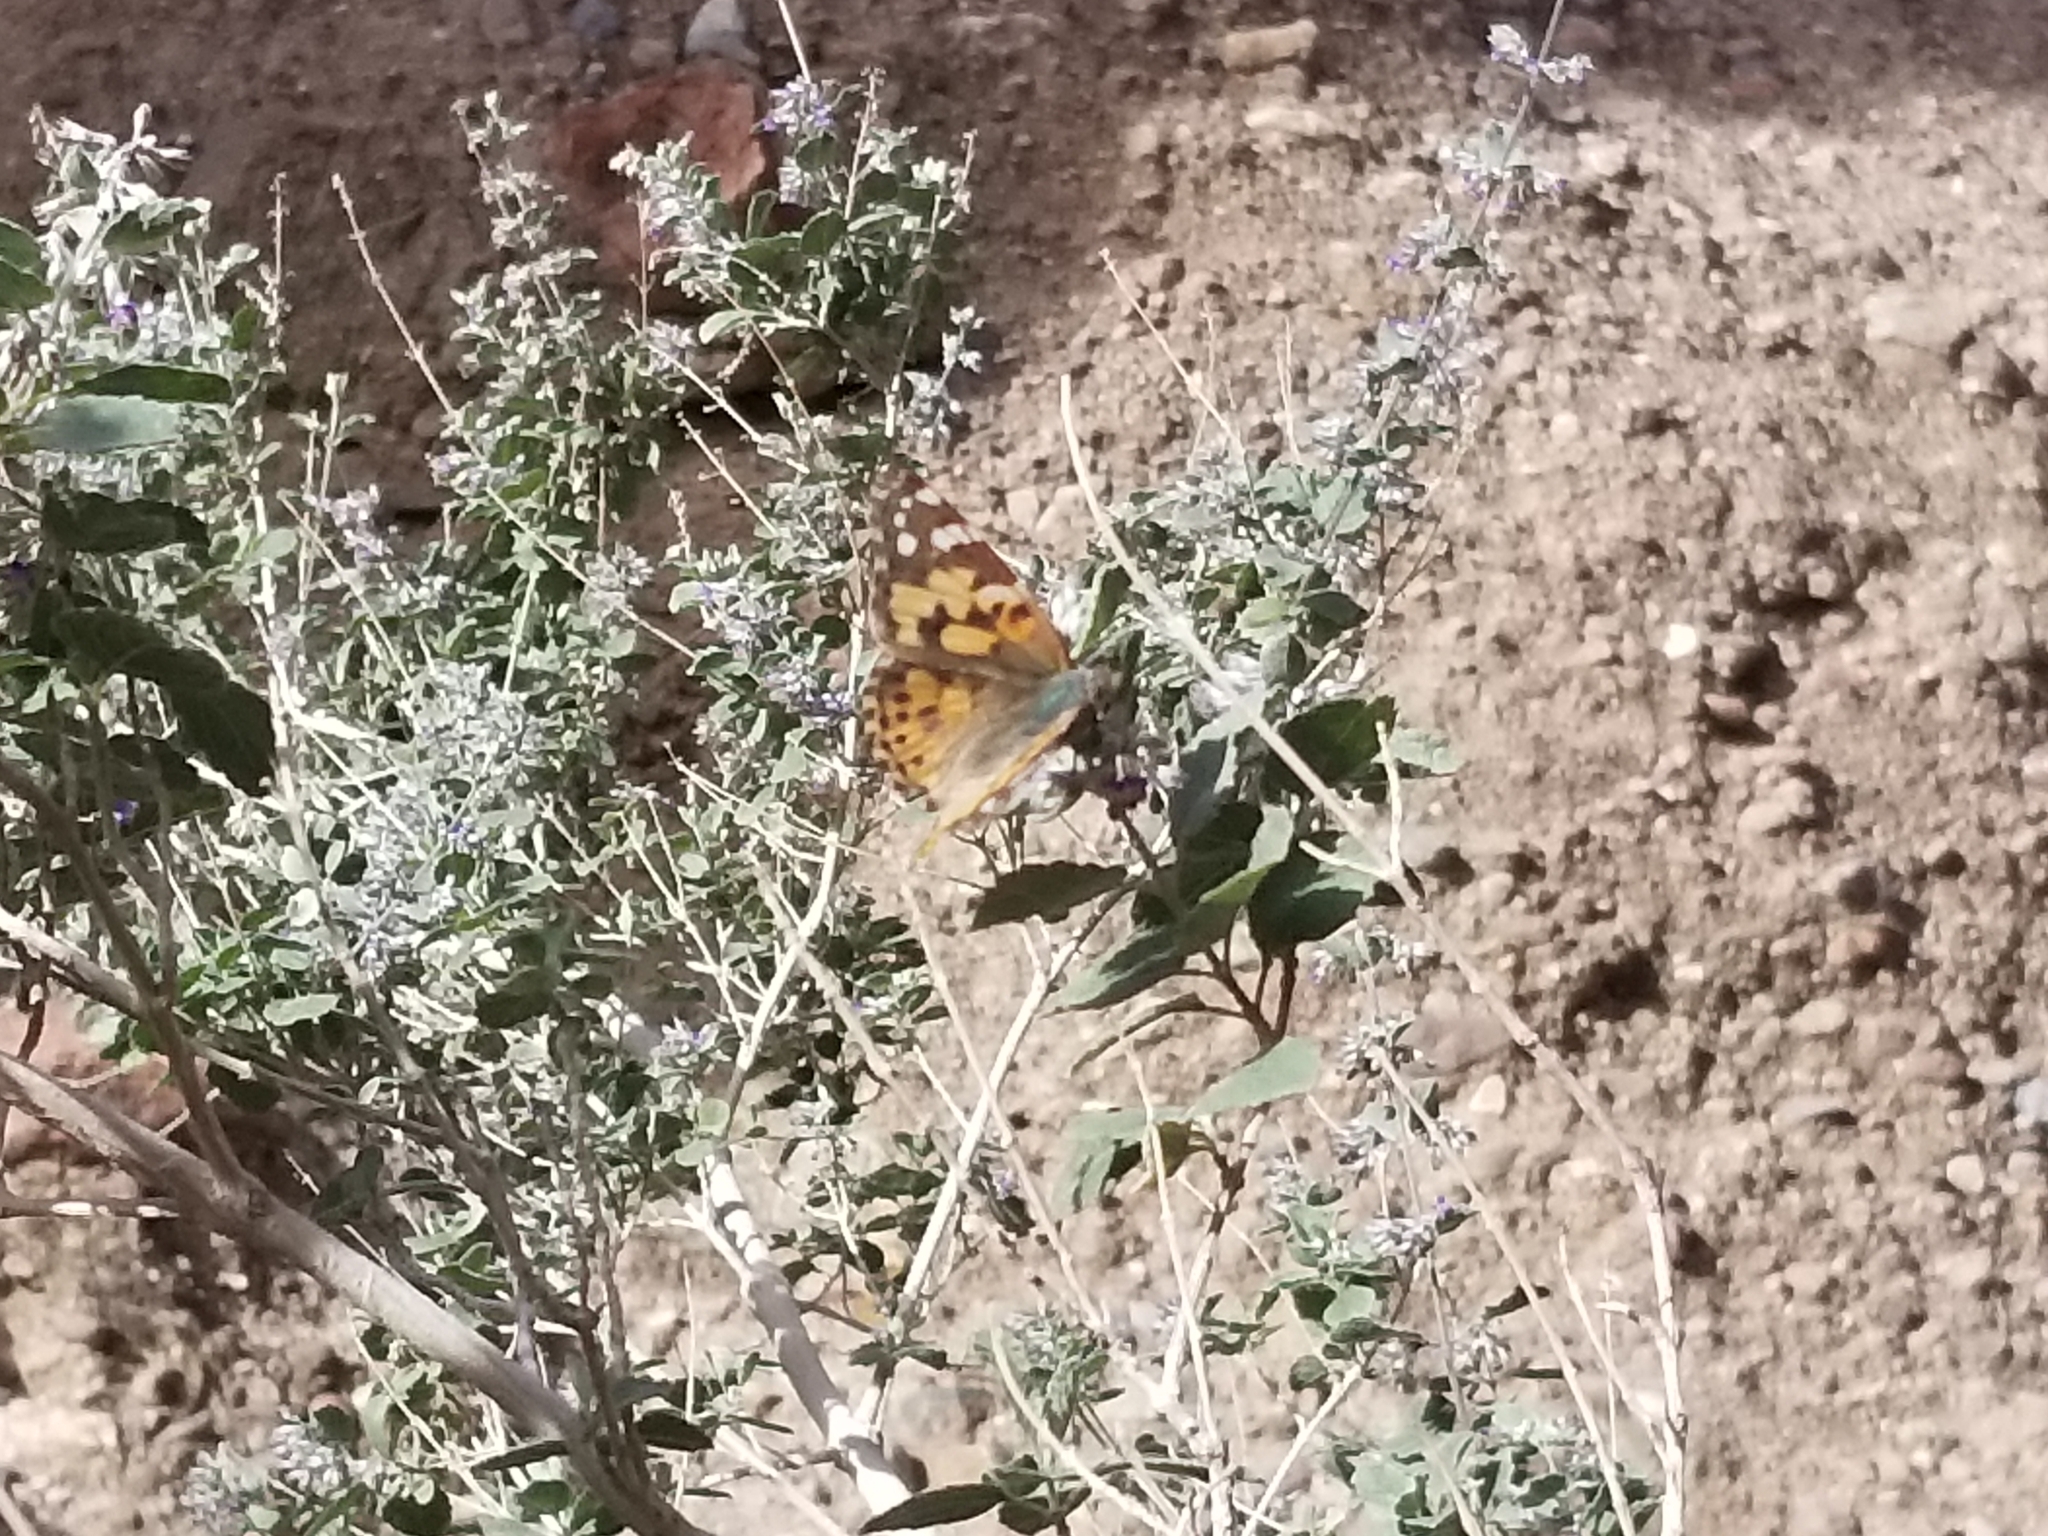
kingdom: Animalia
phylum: Arthropoda
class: Insecta
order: Lepidoptera
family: Nymphalidae
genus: Vanessa
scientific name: Vanessa cardui
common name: Painted lady
